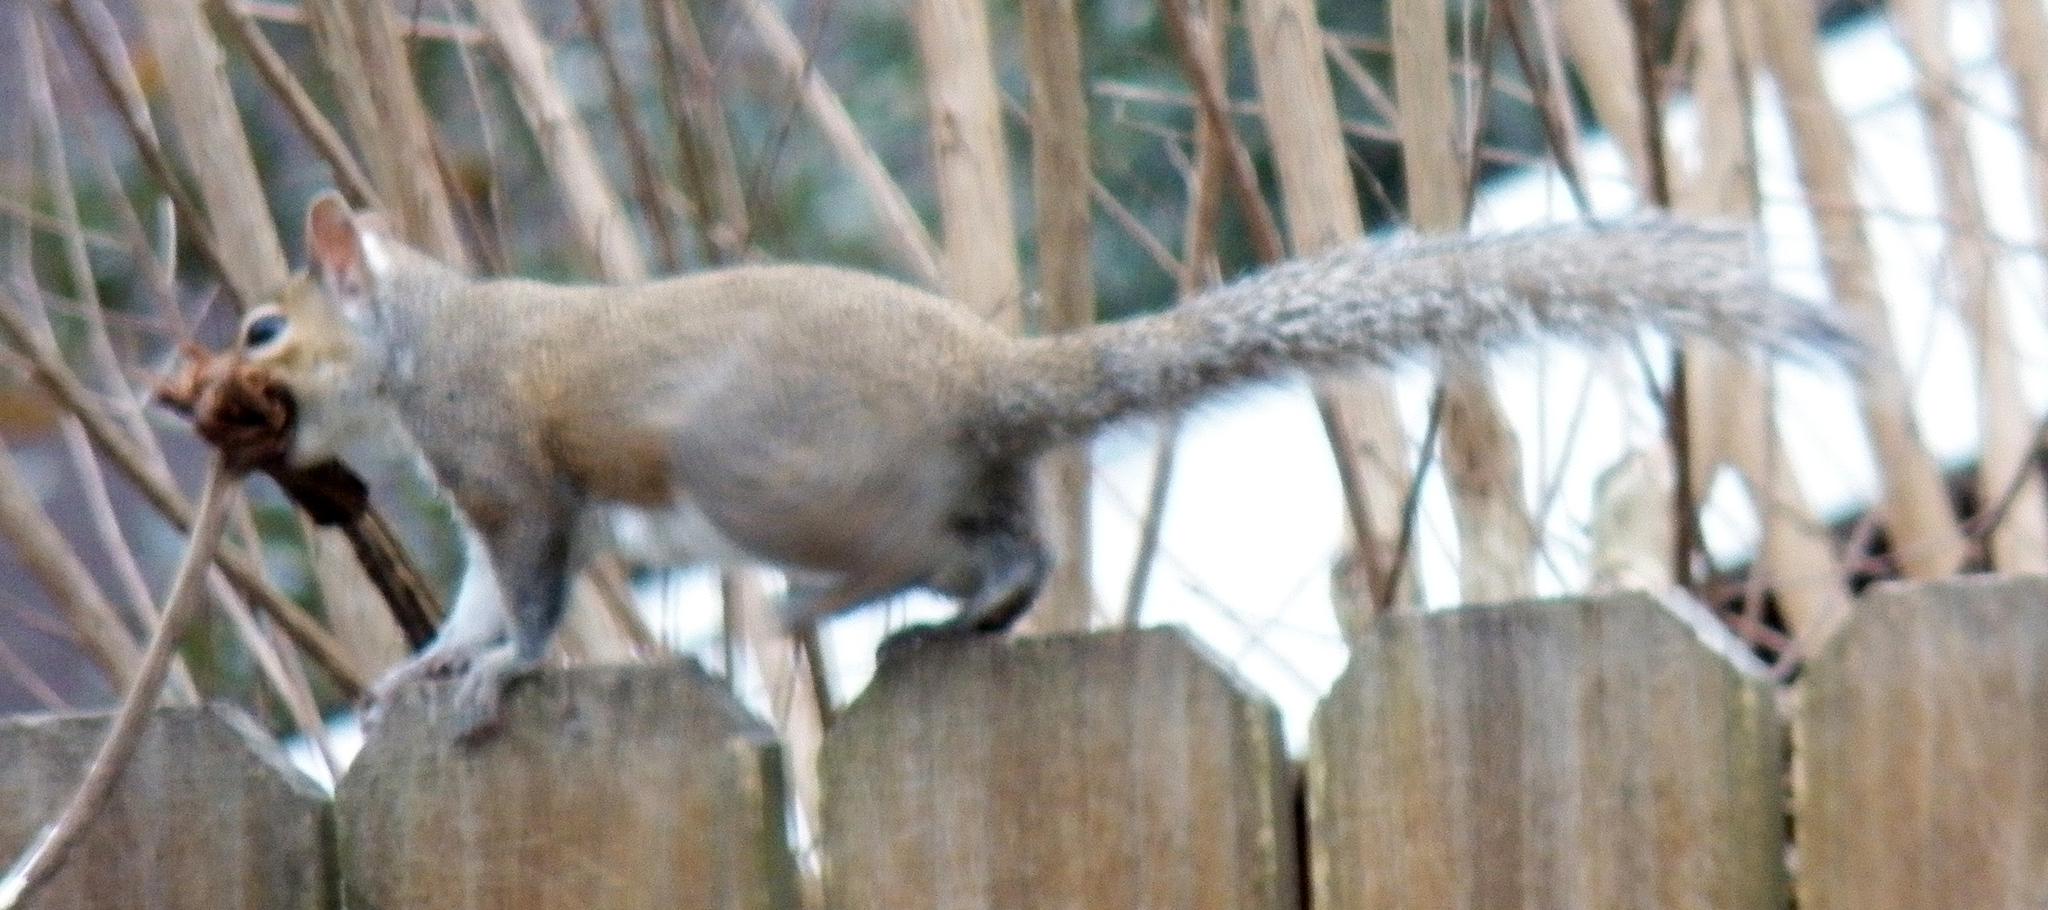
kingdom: Animalia
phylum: Chordata
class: Mammalia
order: Rodentia
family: Sciuridae
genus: Sciurus
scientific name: Sciurus carolinensis
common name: Eastern gray squirrel
